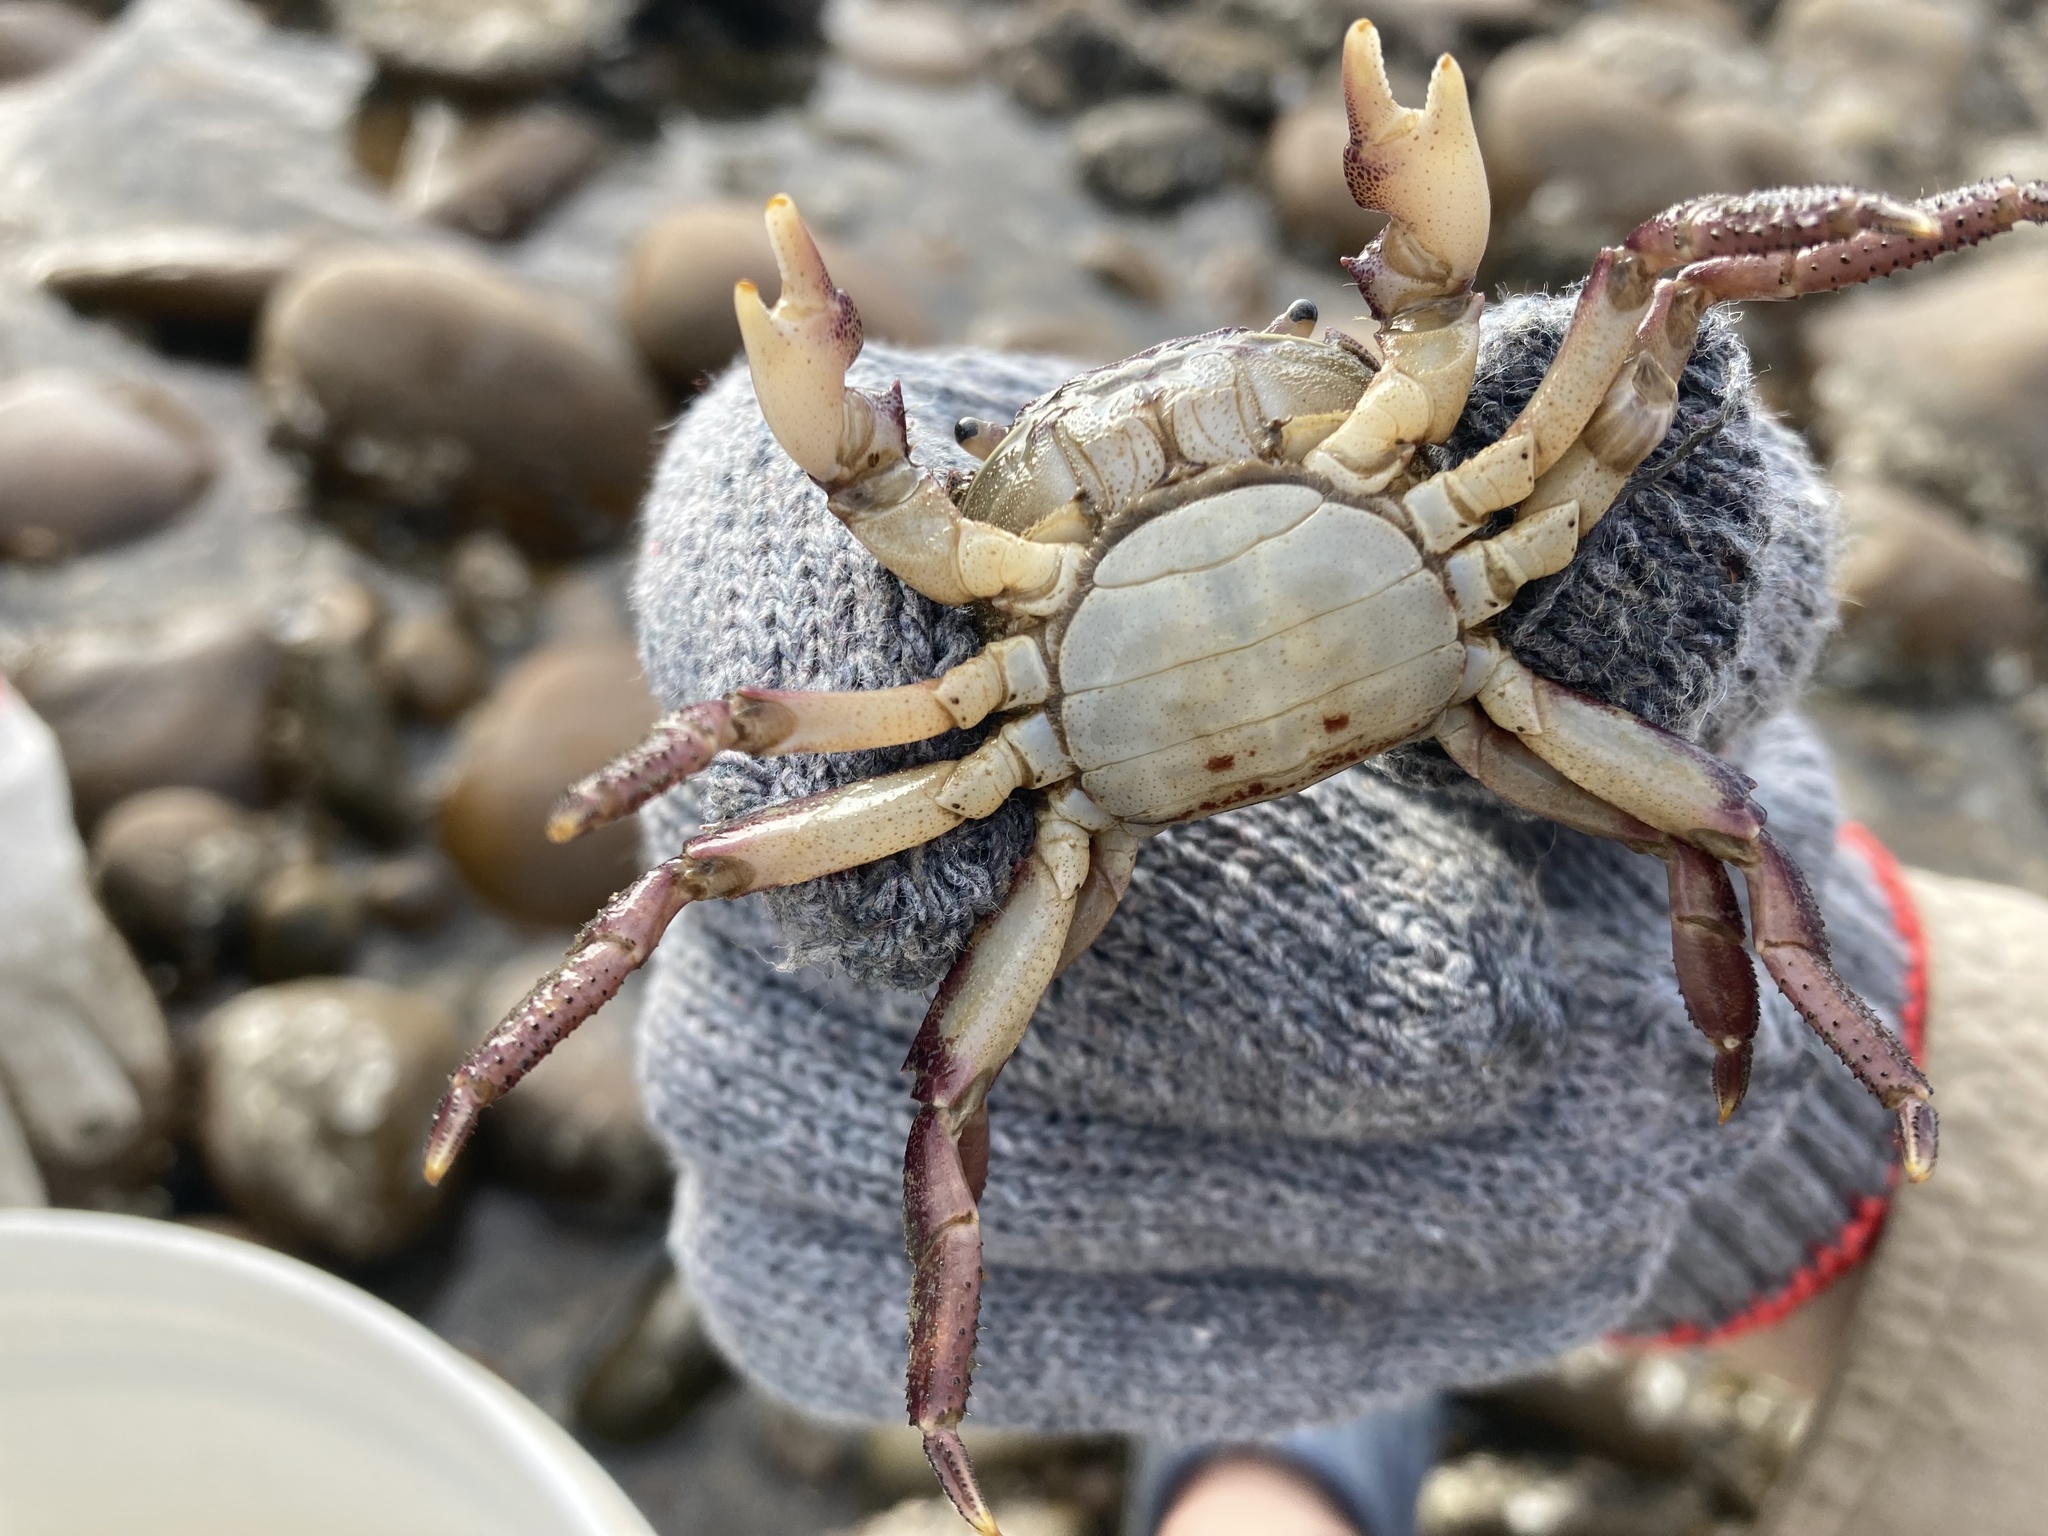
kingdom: Animalia
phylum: Arthropoda
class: Malacostraca
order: Decapoda
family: Varunidae
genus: Hemigrapsus
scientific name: Hemigrapsus sanguineus
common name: Asian shore crab
